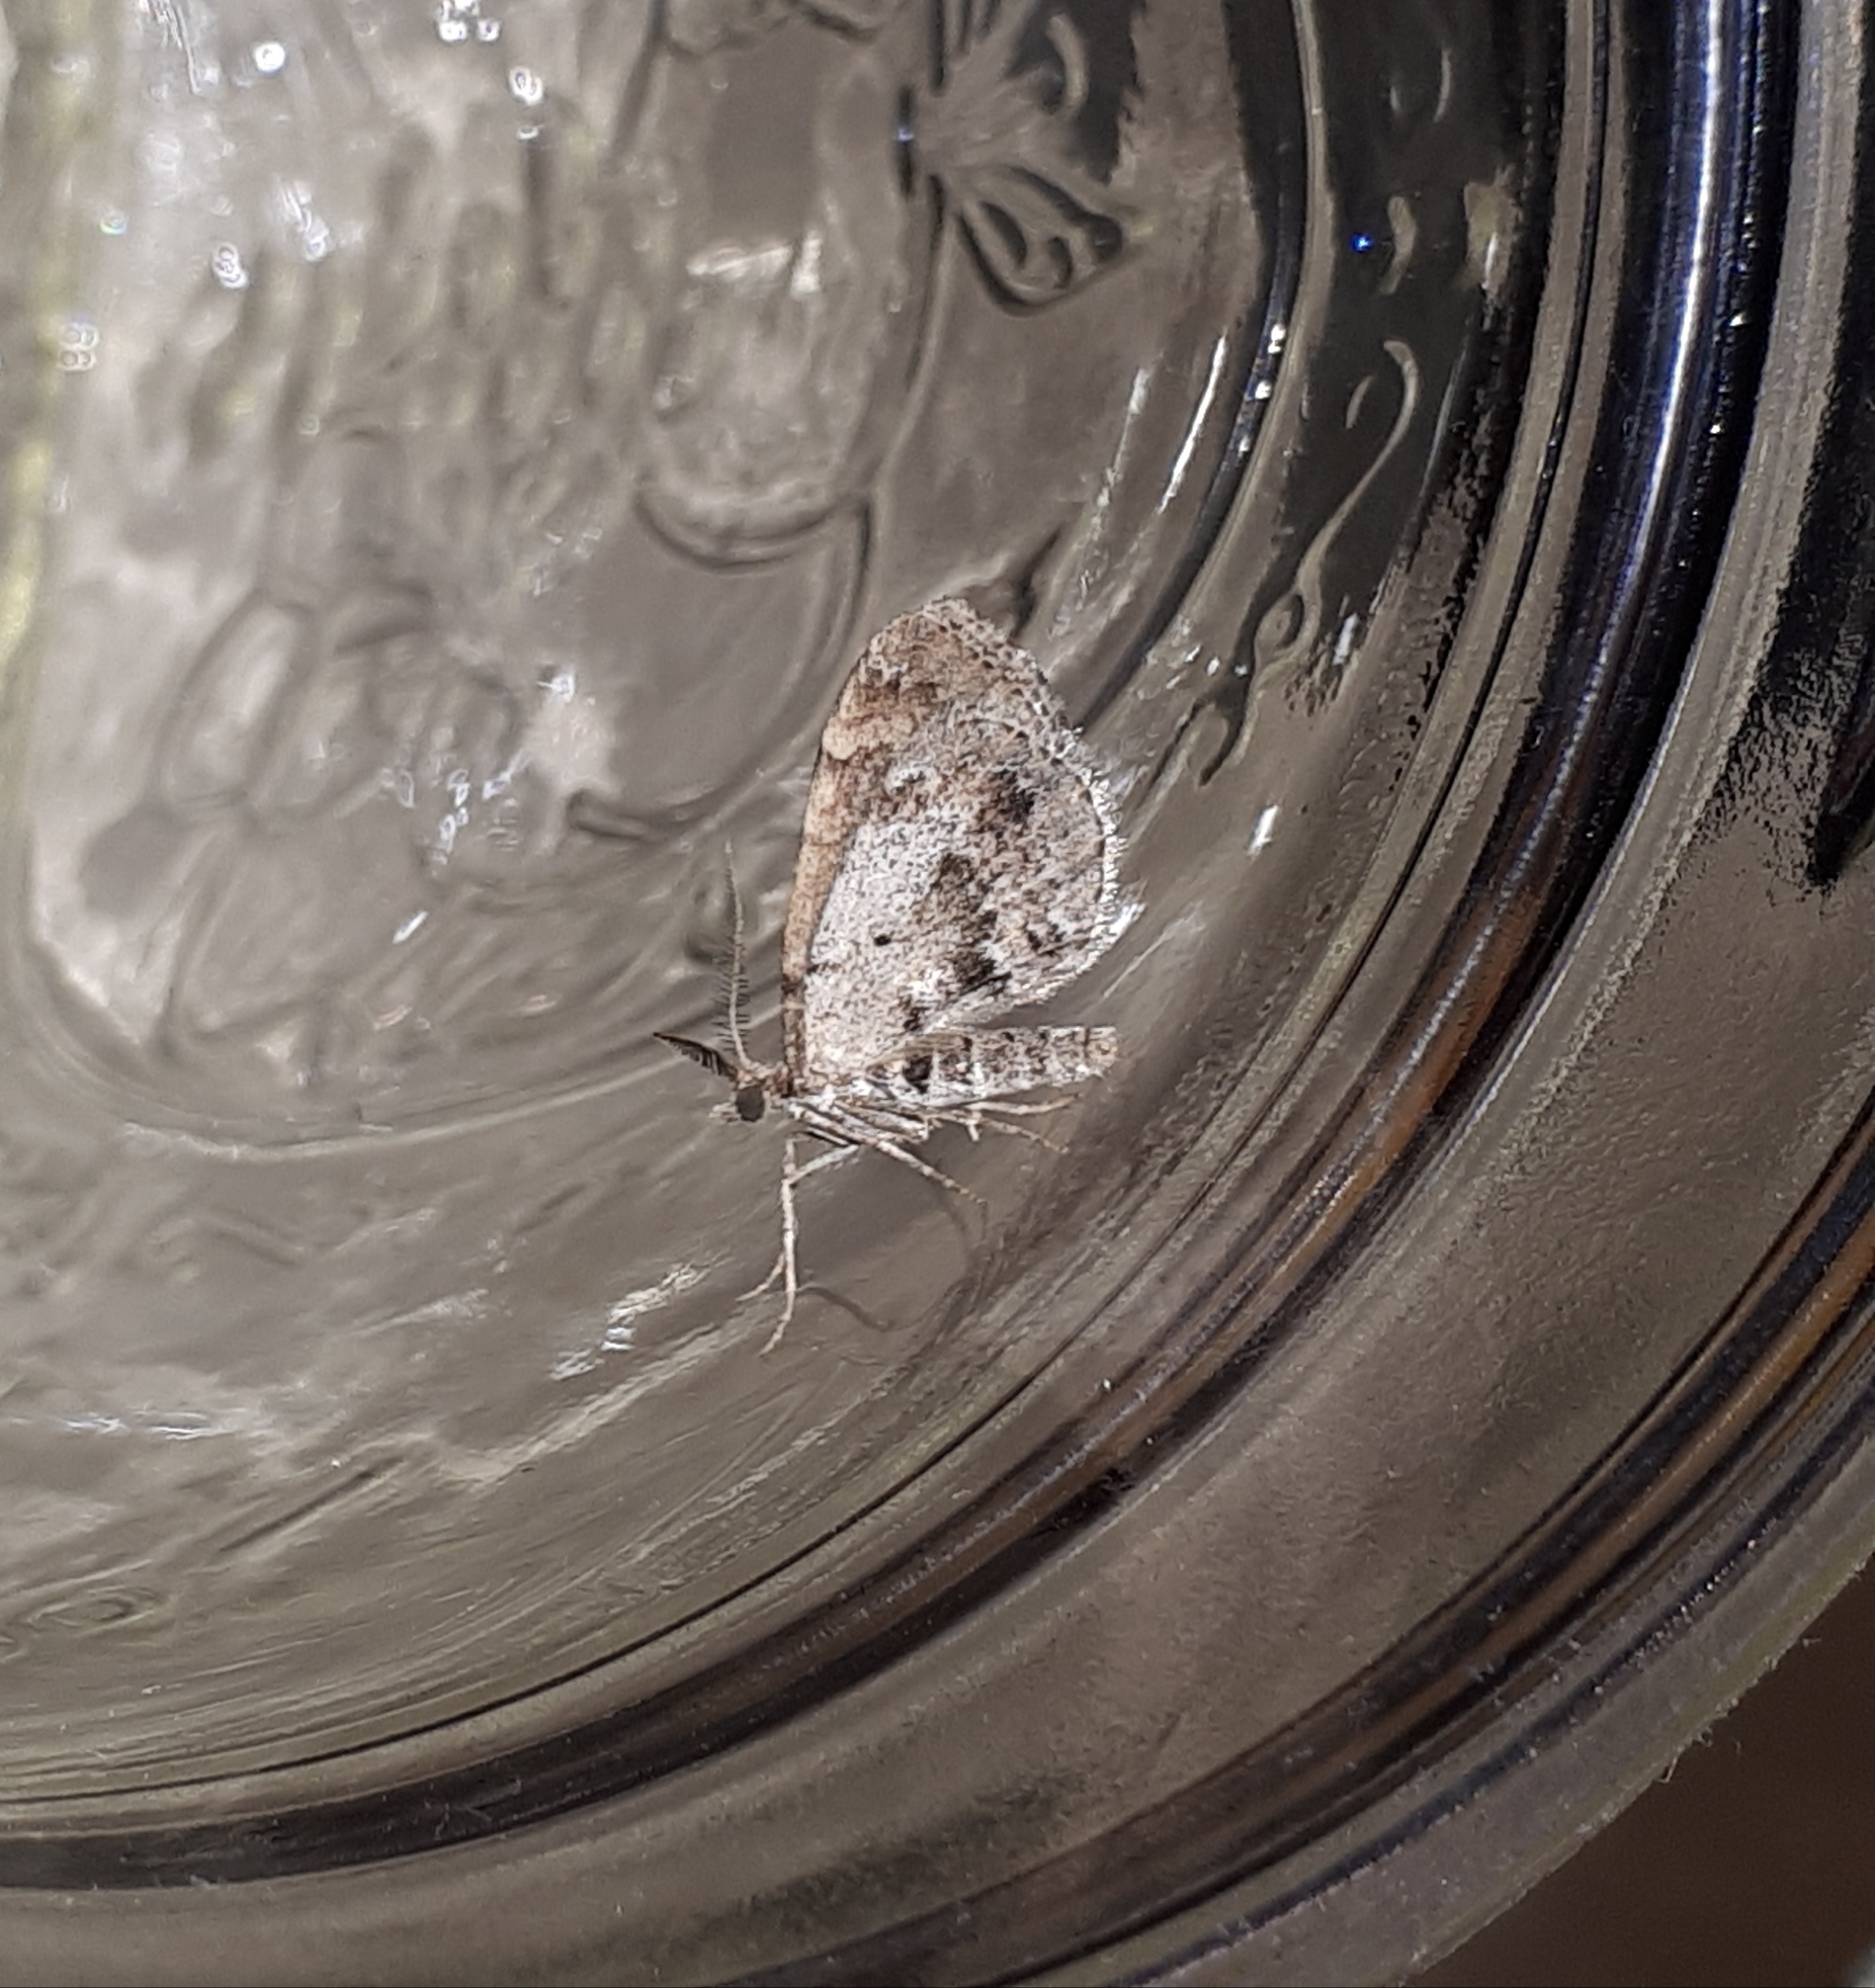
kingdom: Animalia
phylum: Arthropoda
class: Insecta
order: Lepidoptera
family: Geometridae
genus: Asaphodes
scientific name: Asaphodes aegrota
